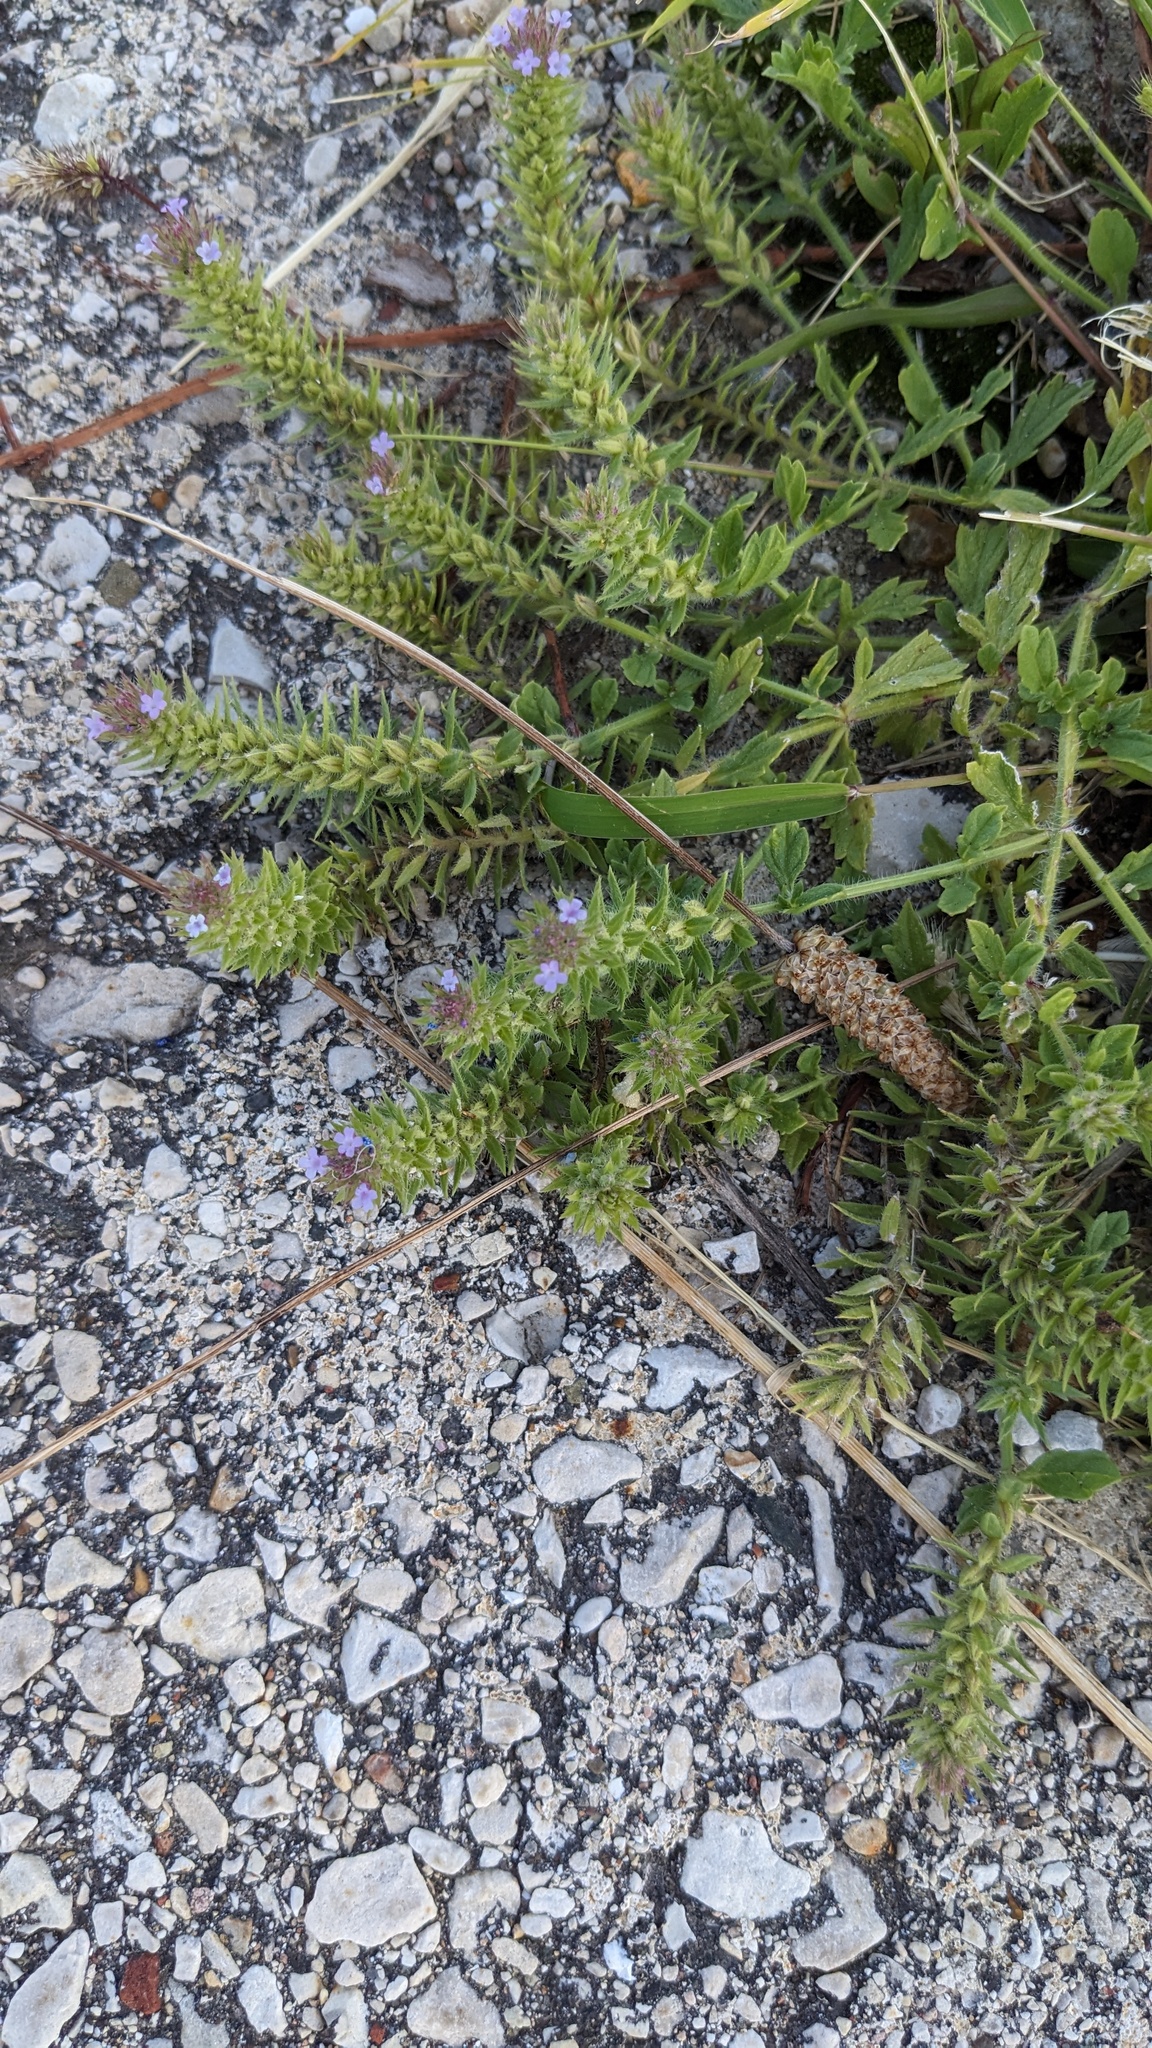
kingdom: Plantae
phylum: Tracheophyta
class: Magnoliopsida
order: Lamiales
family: Verbenaceae
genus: Verbena
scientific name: Verbena bracteata
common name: Bracted vervain
